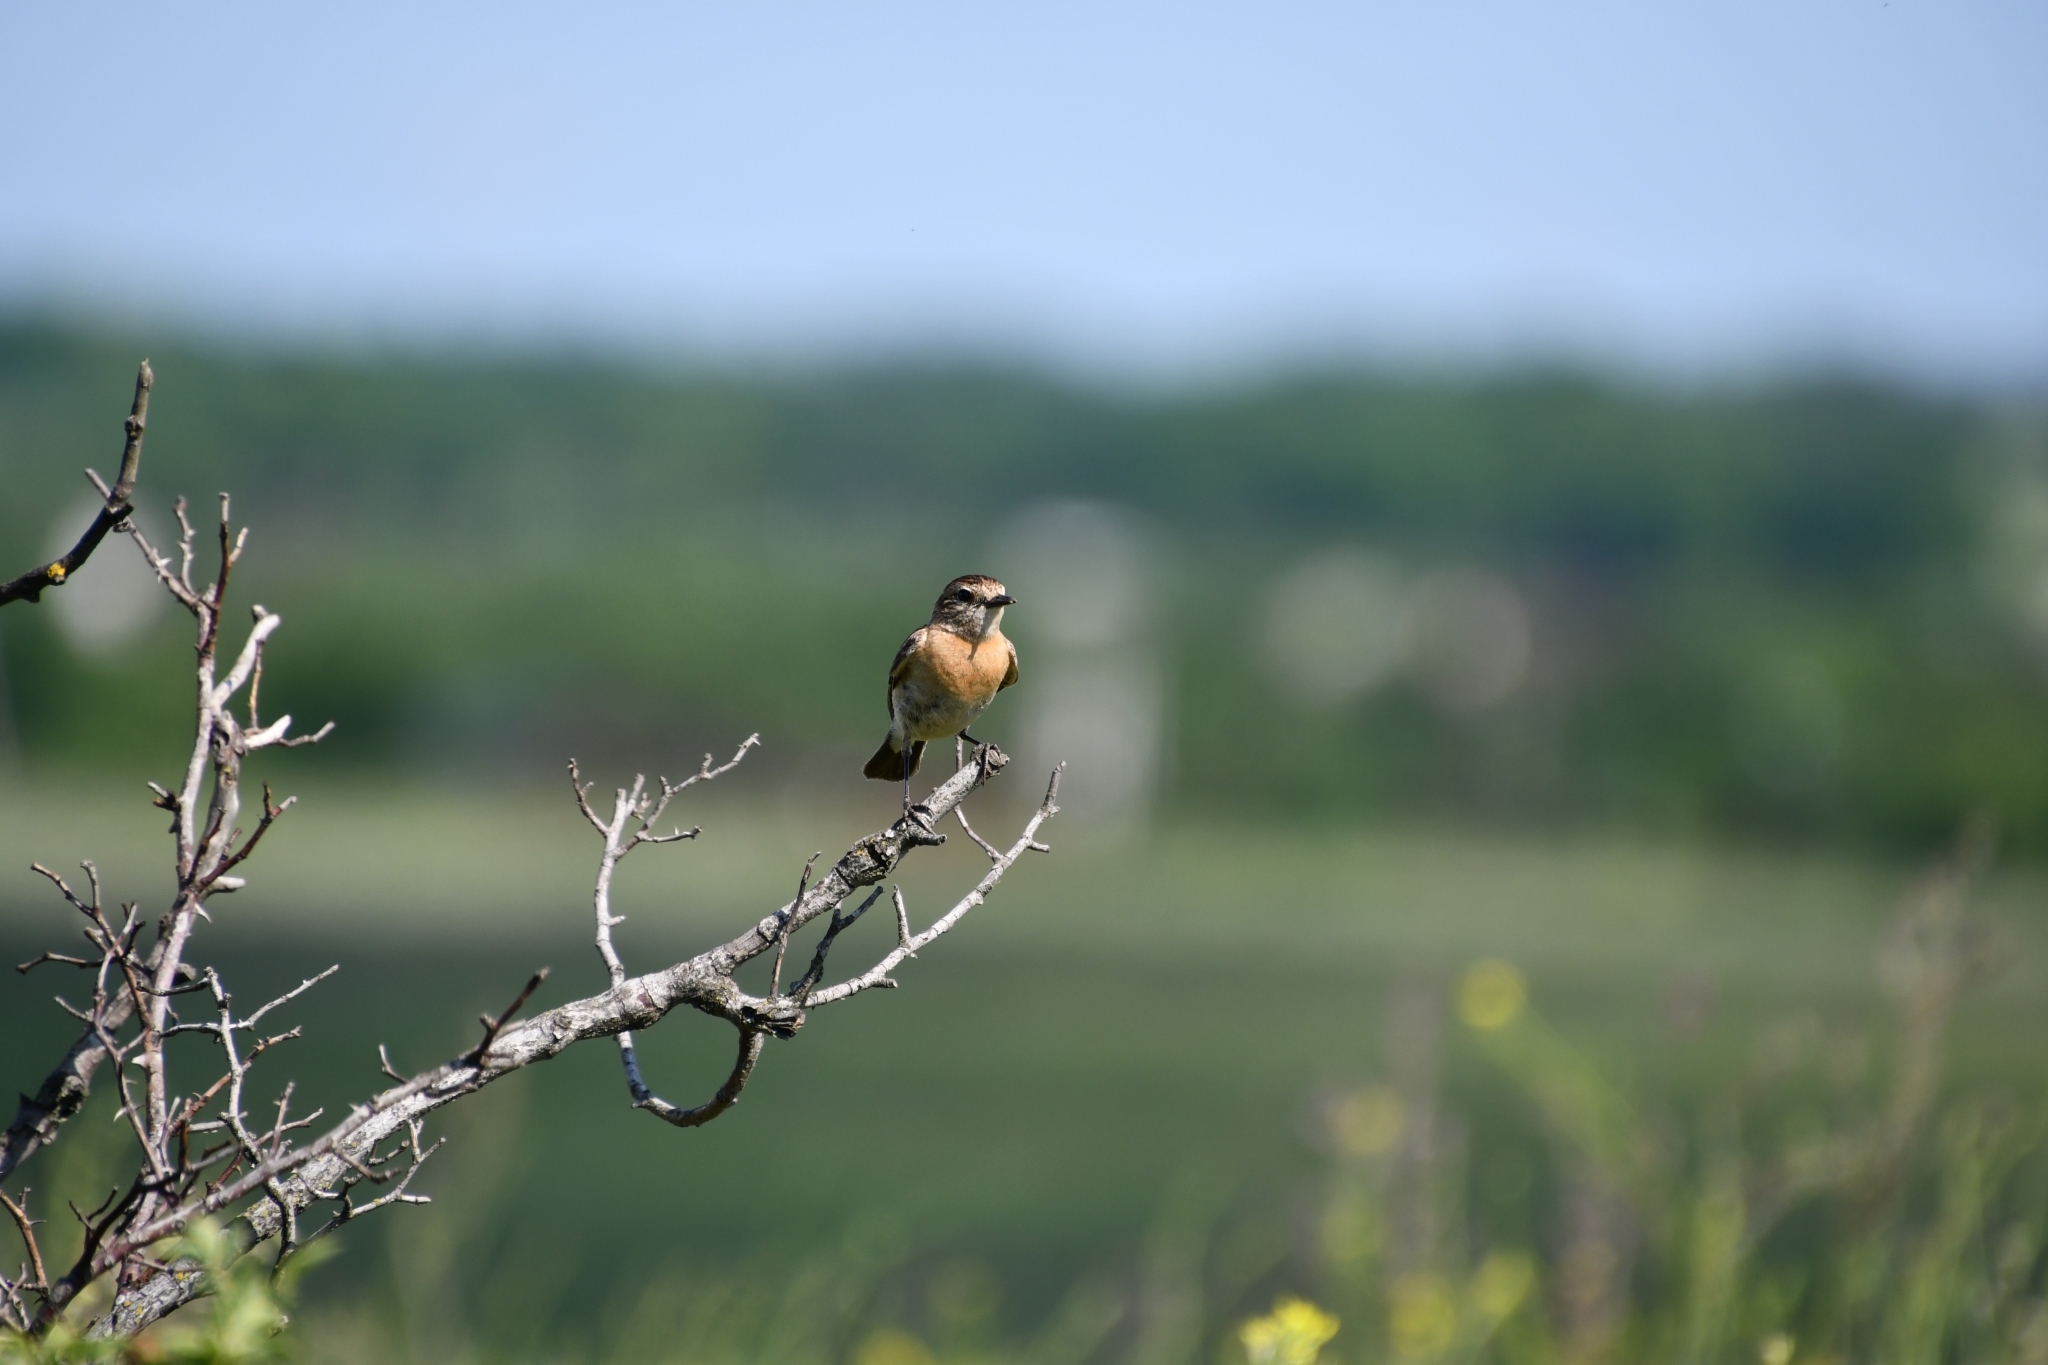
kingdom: Animalia
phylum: Chordata
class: Aves
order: Passeriformes
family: Muscicapidae
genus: Saxicola
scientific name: Saxicola rubicola
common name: European stonechat
